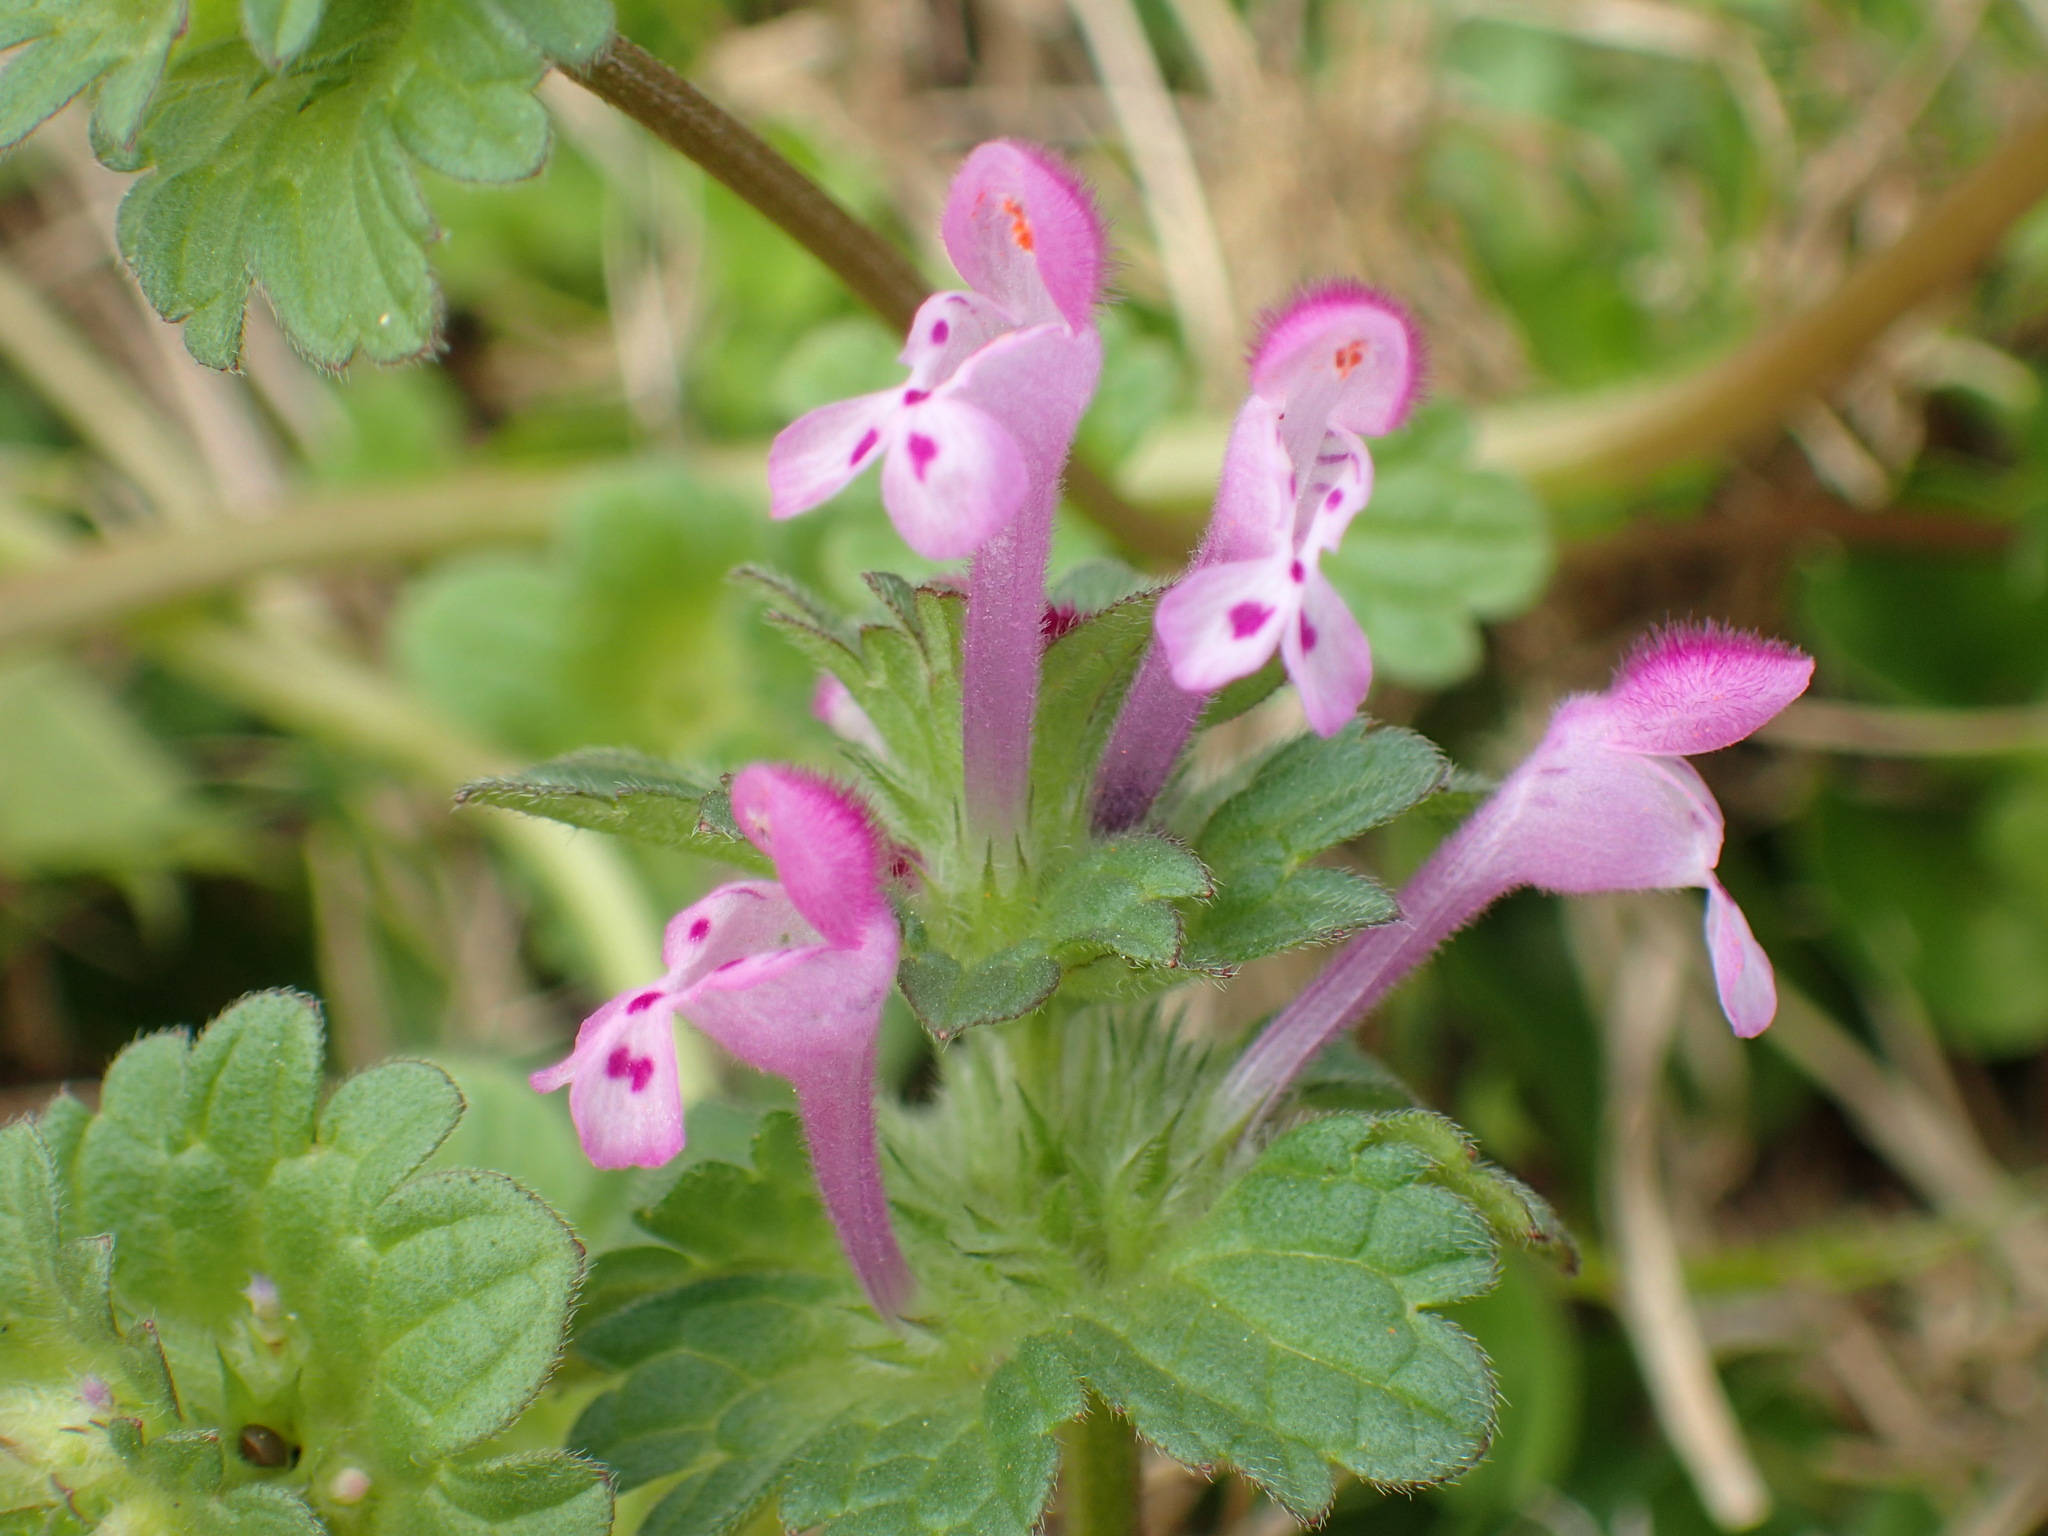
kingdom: Plantae
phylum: Tracheophyta
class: Magnoliopsida
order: Lamiales
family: Lamiaceae
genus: Lamium
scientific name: Lamium amplexicaule
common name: Henbit dead-nettle
